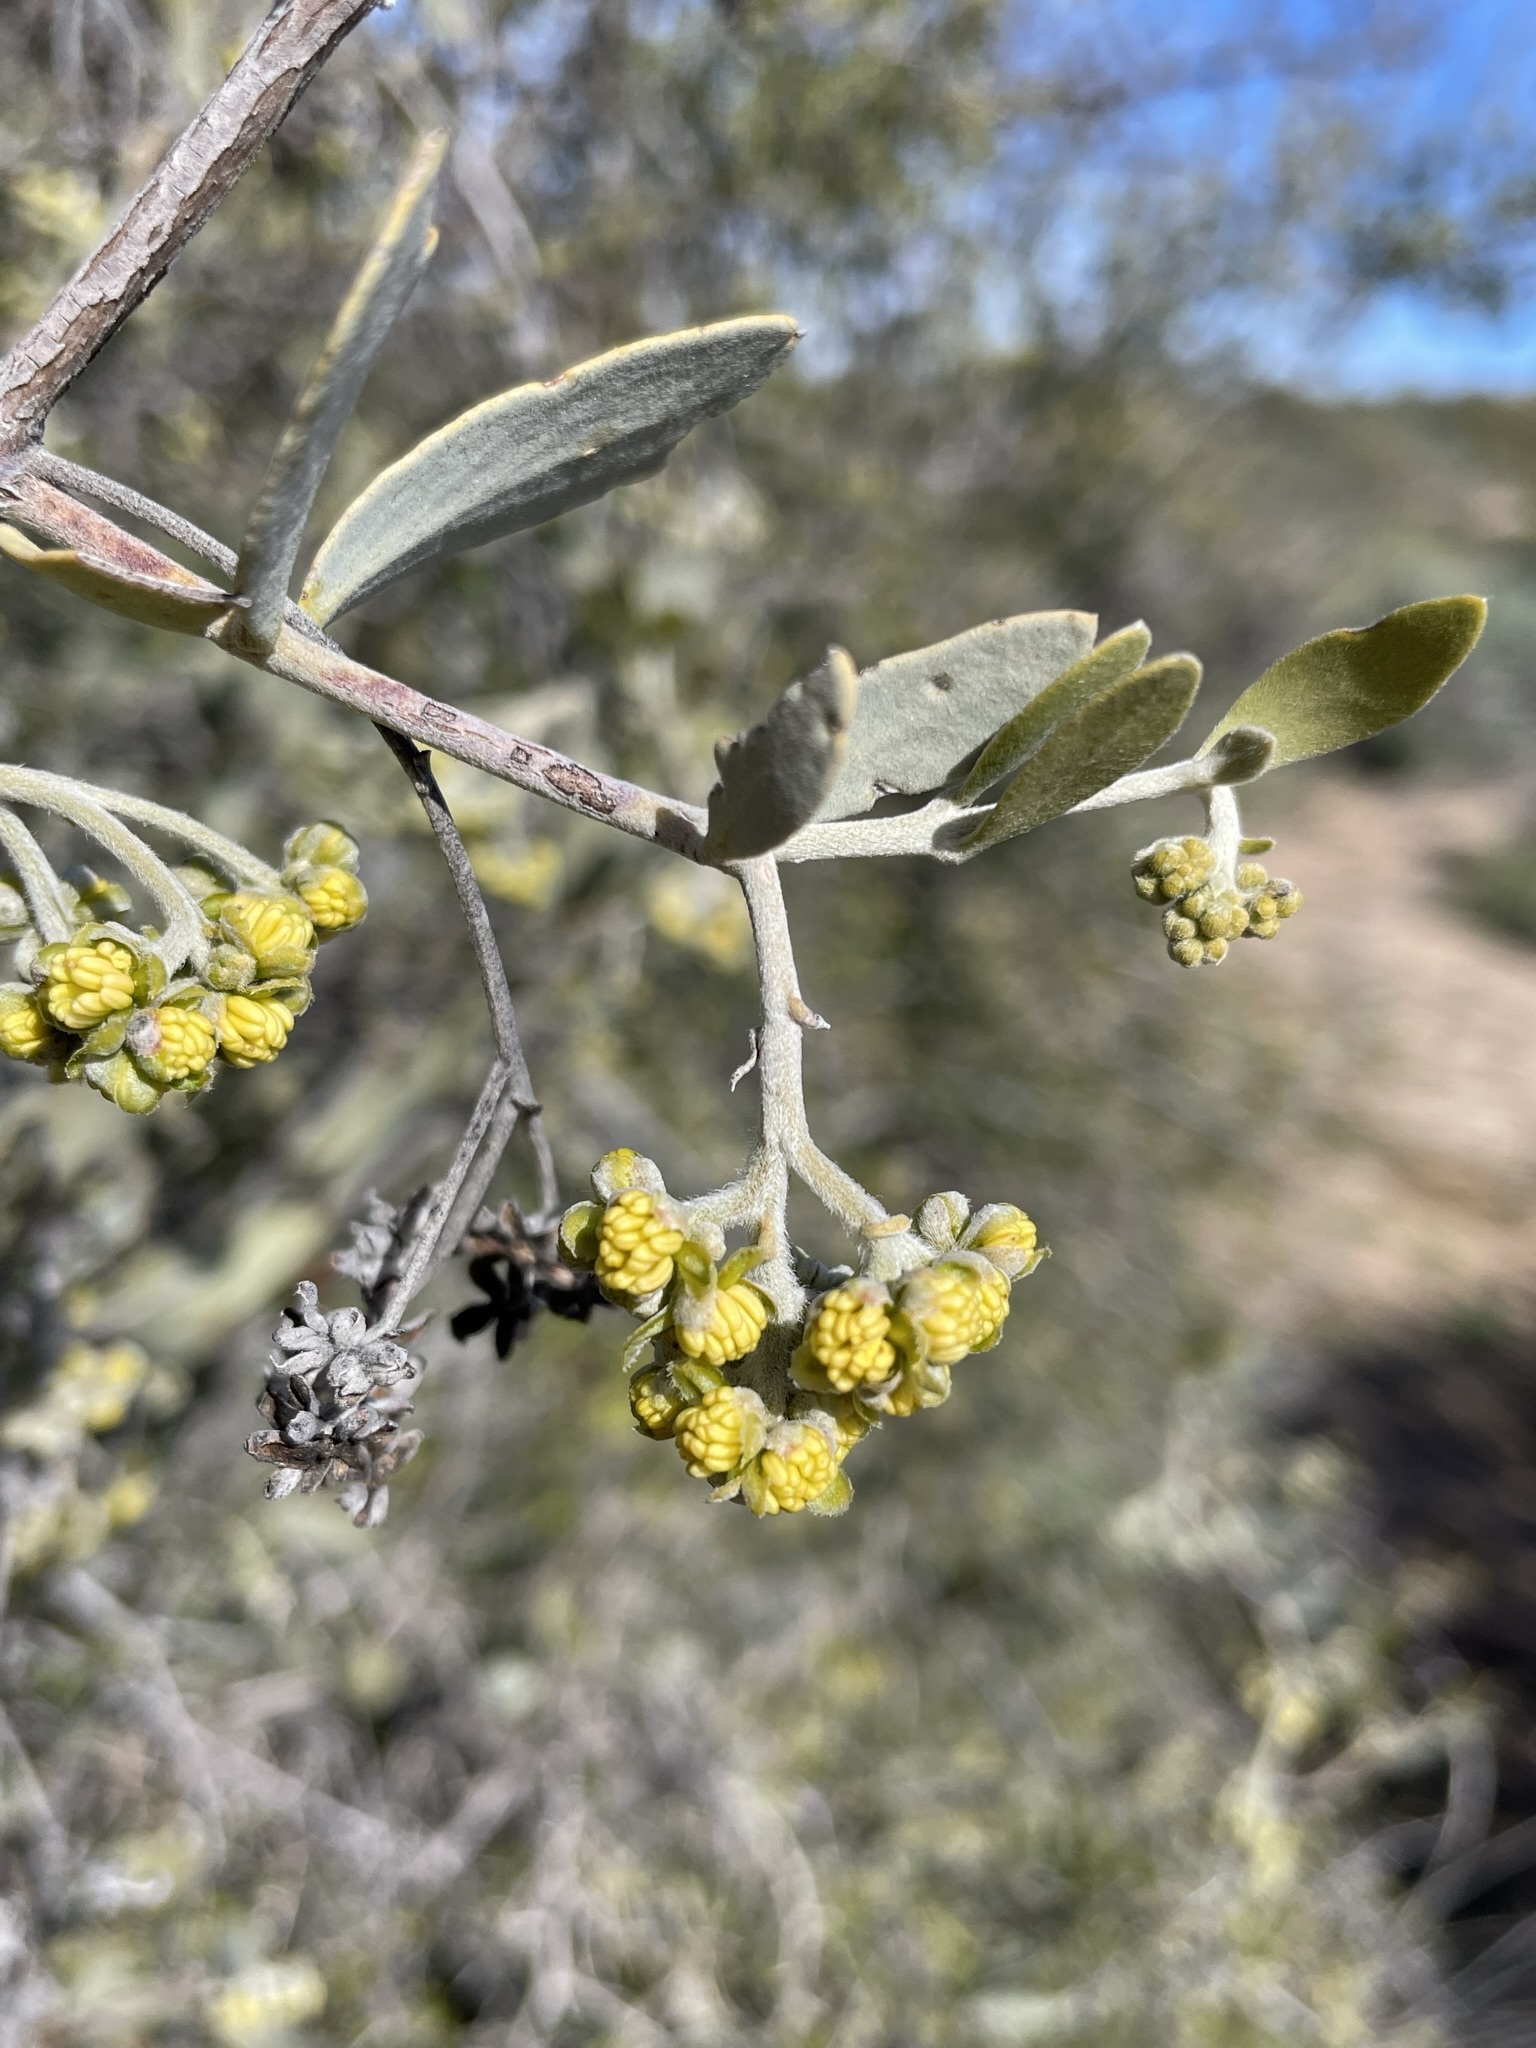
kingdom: Plantae
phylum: Tracheophyta
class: Magnoliopsida
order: Caryophyllales
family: Simmondsiaceae
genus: Simmondsia
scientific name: Simmondsia chinensis
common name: Jojoba
